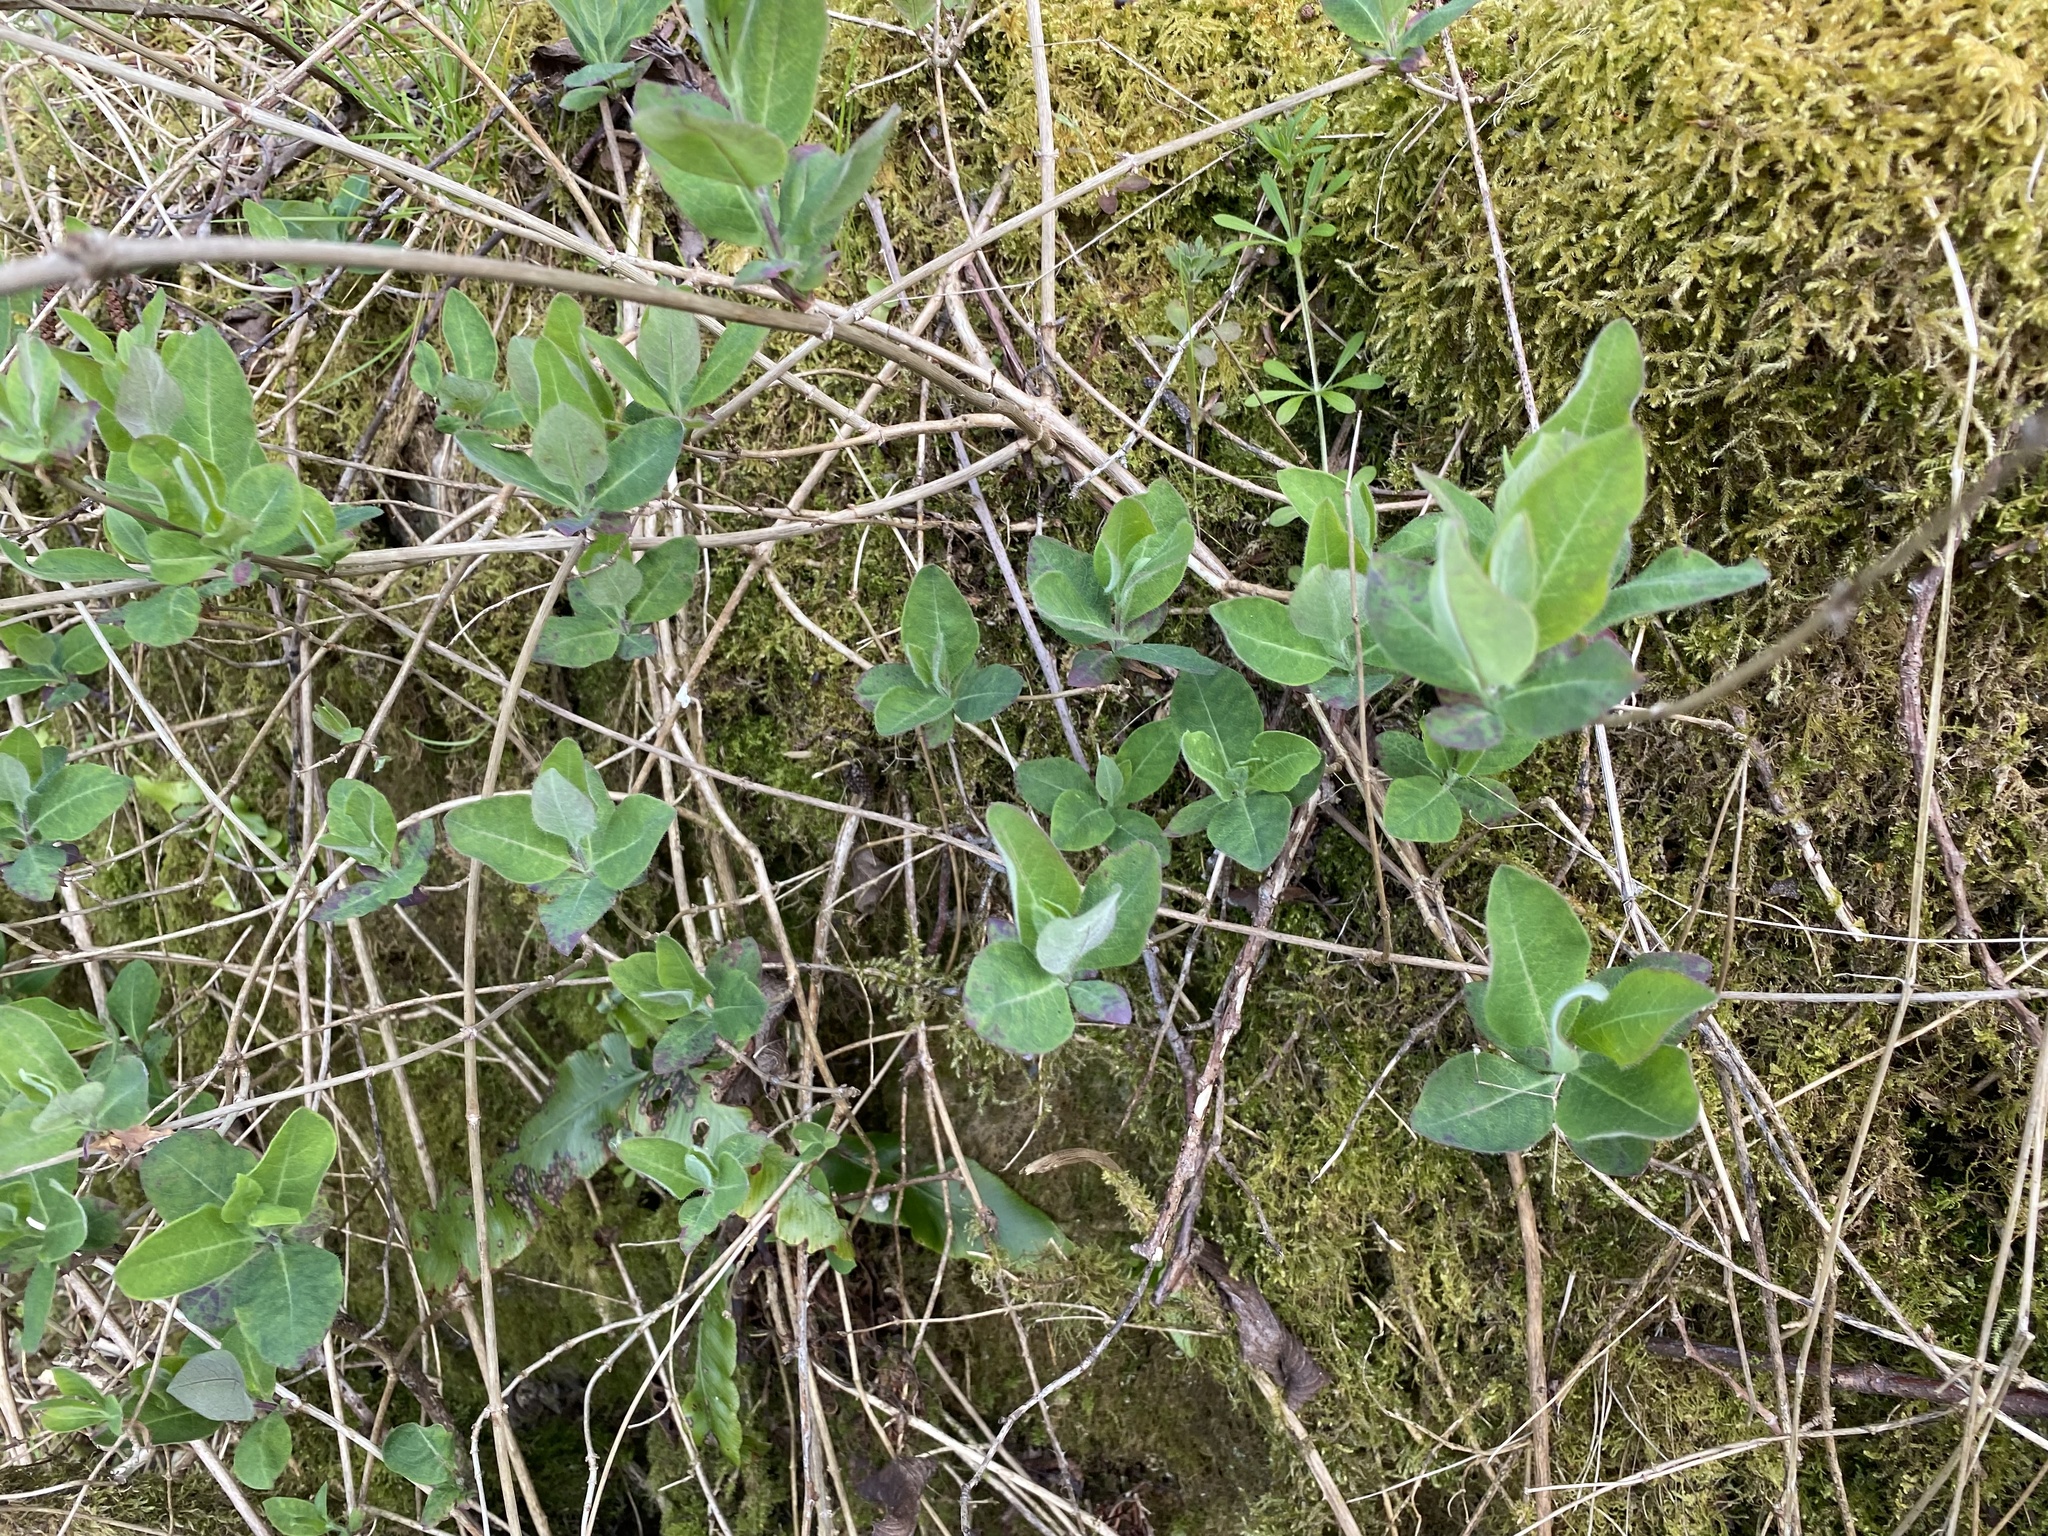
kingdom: Plantae
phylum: Tracheophyta
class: Magnoliopsida
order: Dipsacales
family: Caprifoliaceae
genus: Lonicera
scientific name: Lonicera periclymenum
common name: European honeysuckle
